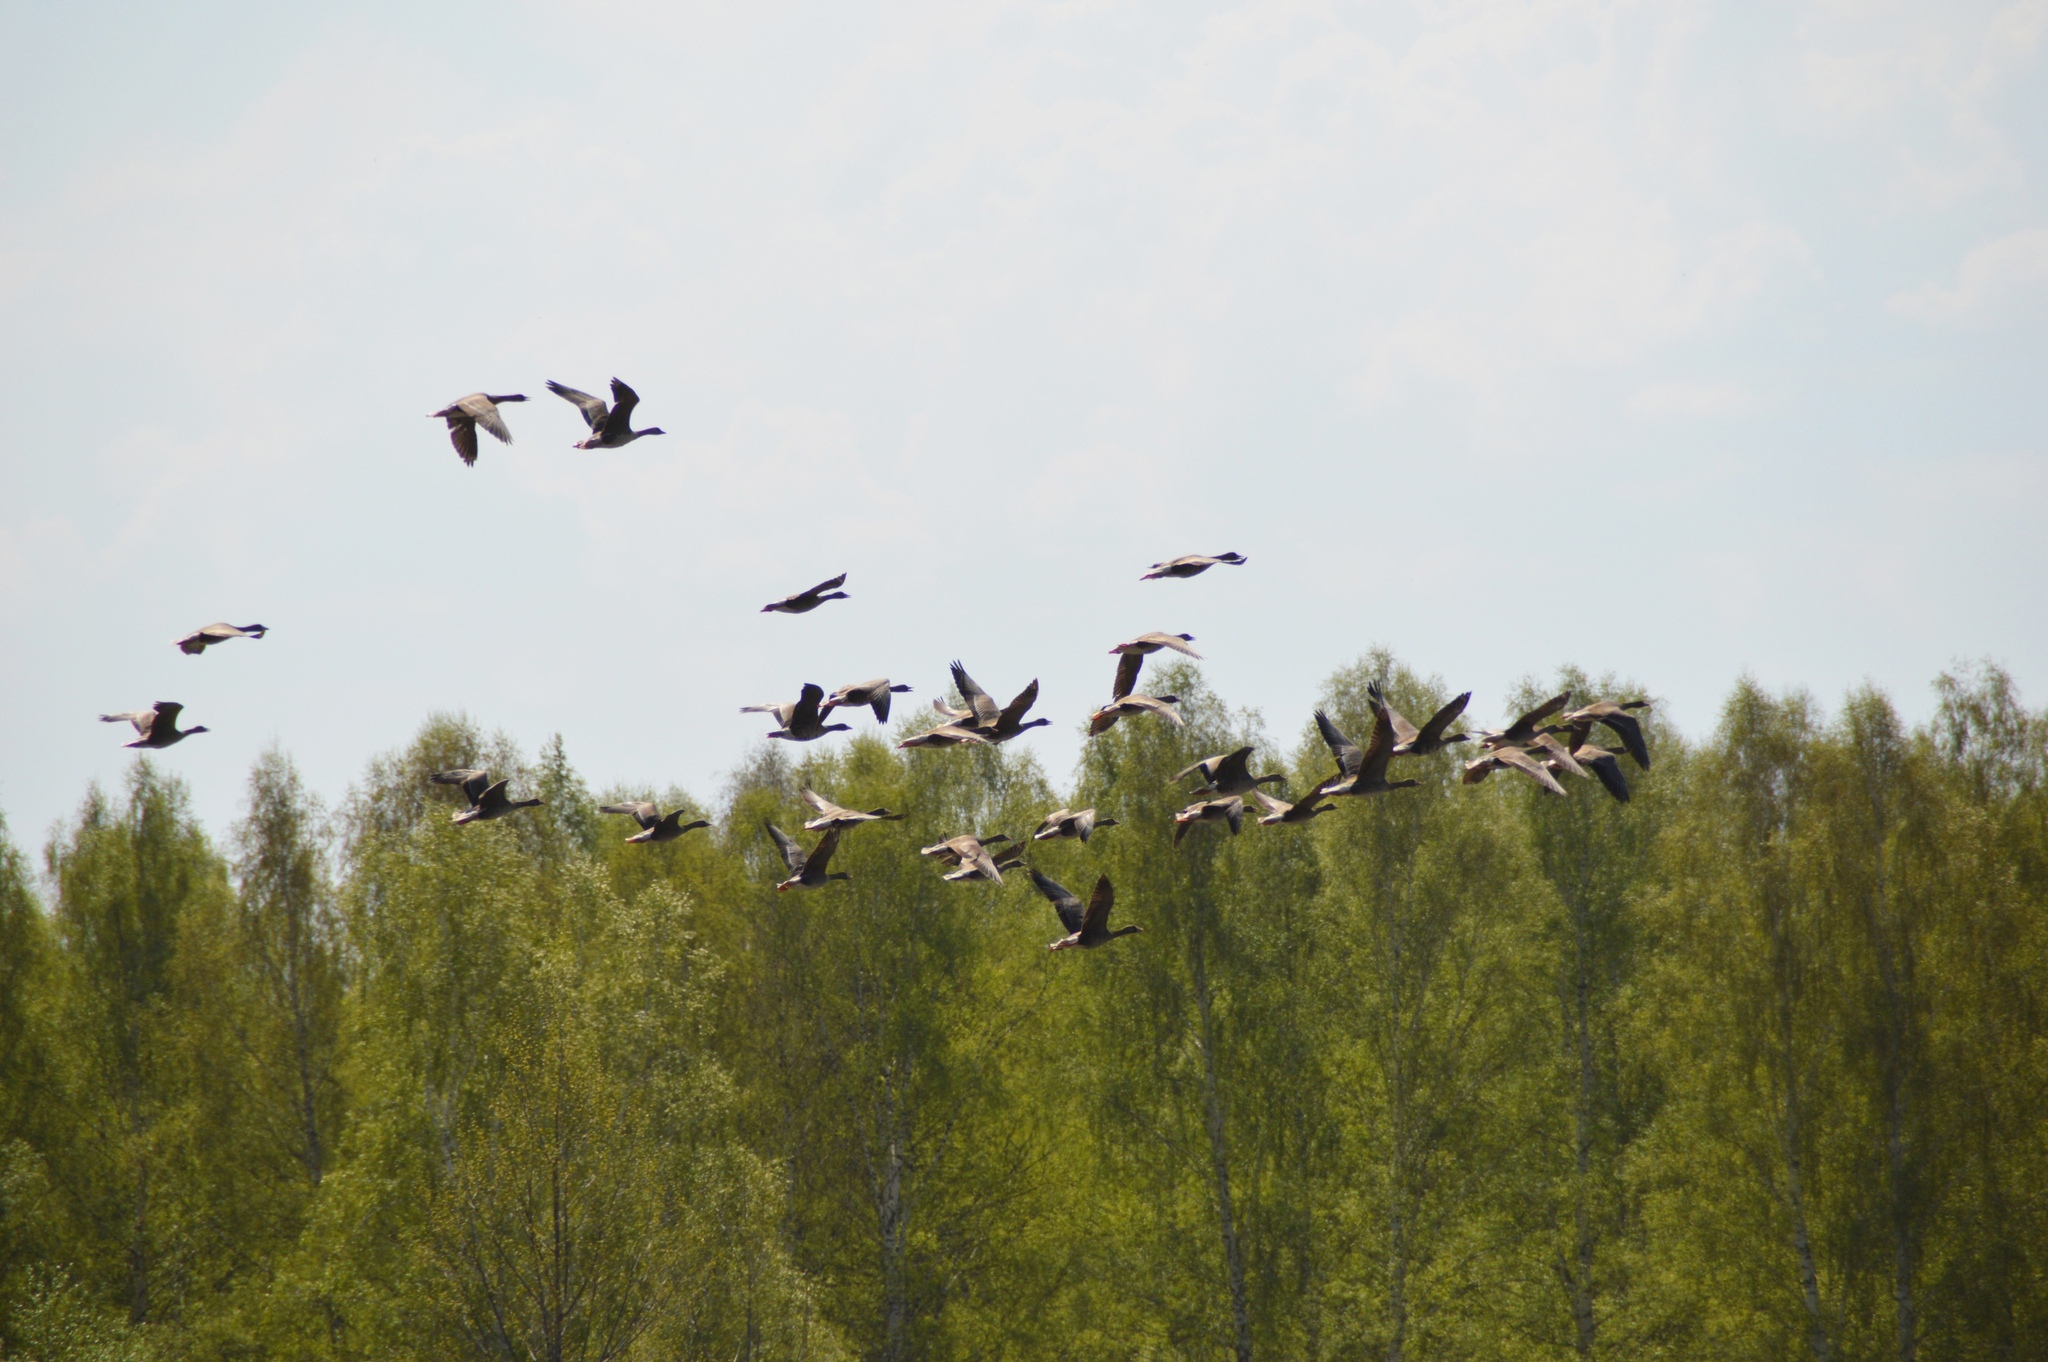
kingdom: Animalia
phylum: Chordata
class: Aves
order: Anseriformes
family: Anatidae
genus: Anser
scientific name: Anser albifrons
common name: Greater white-fronted goose
